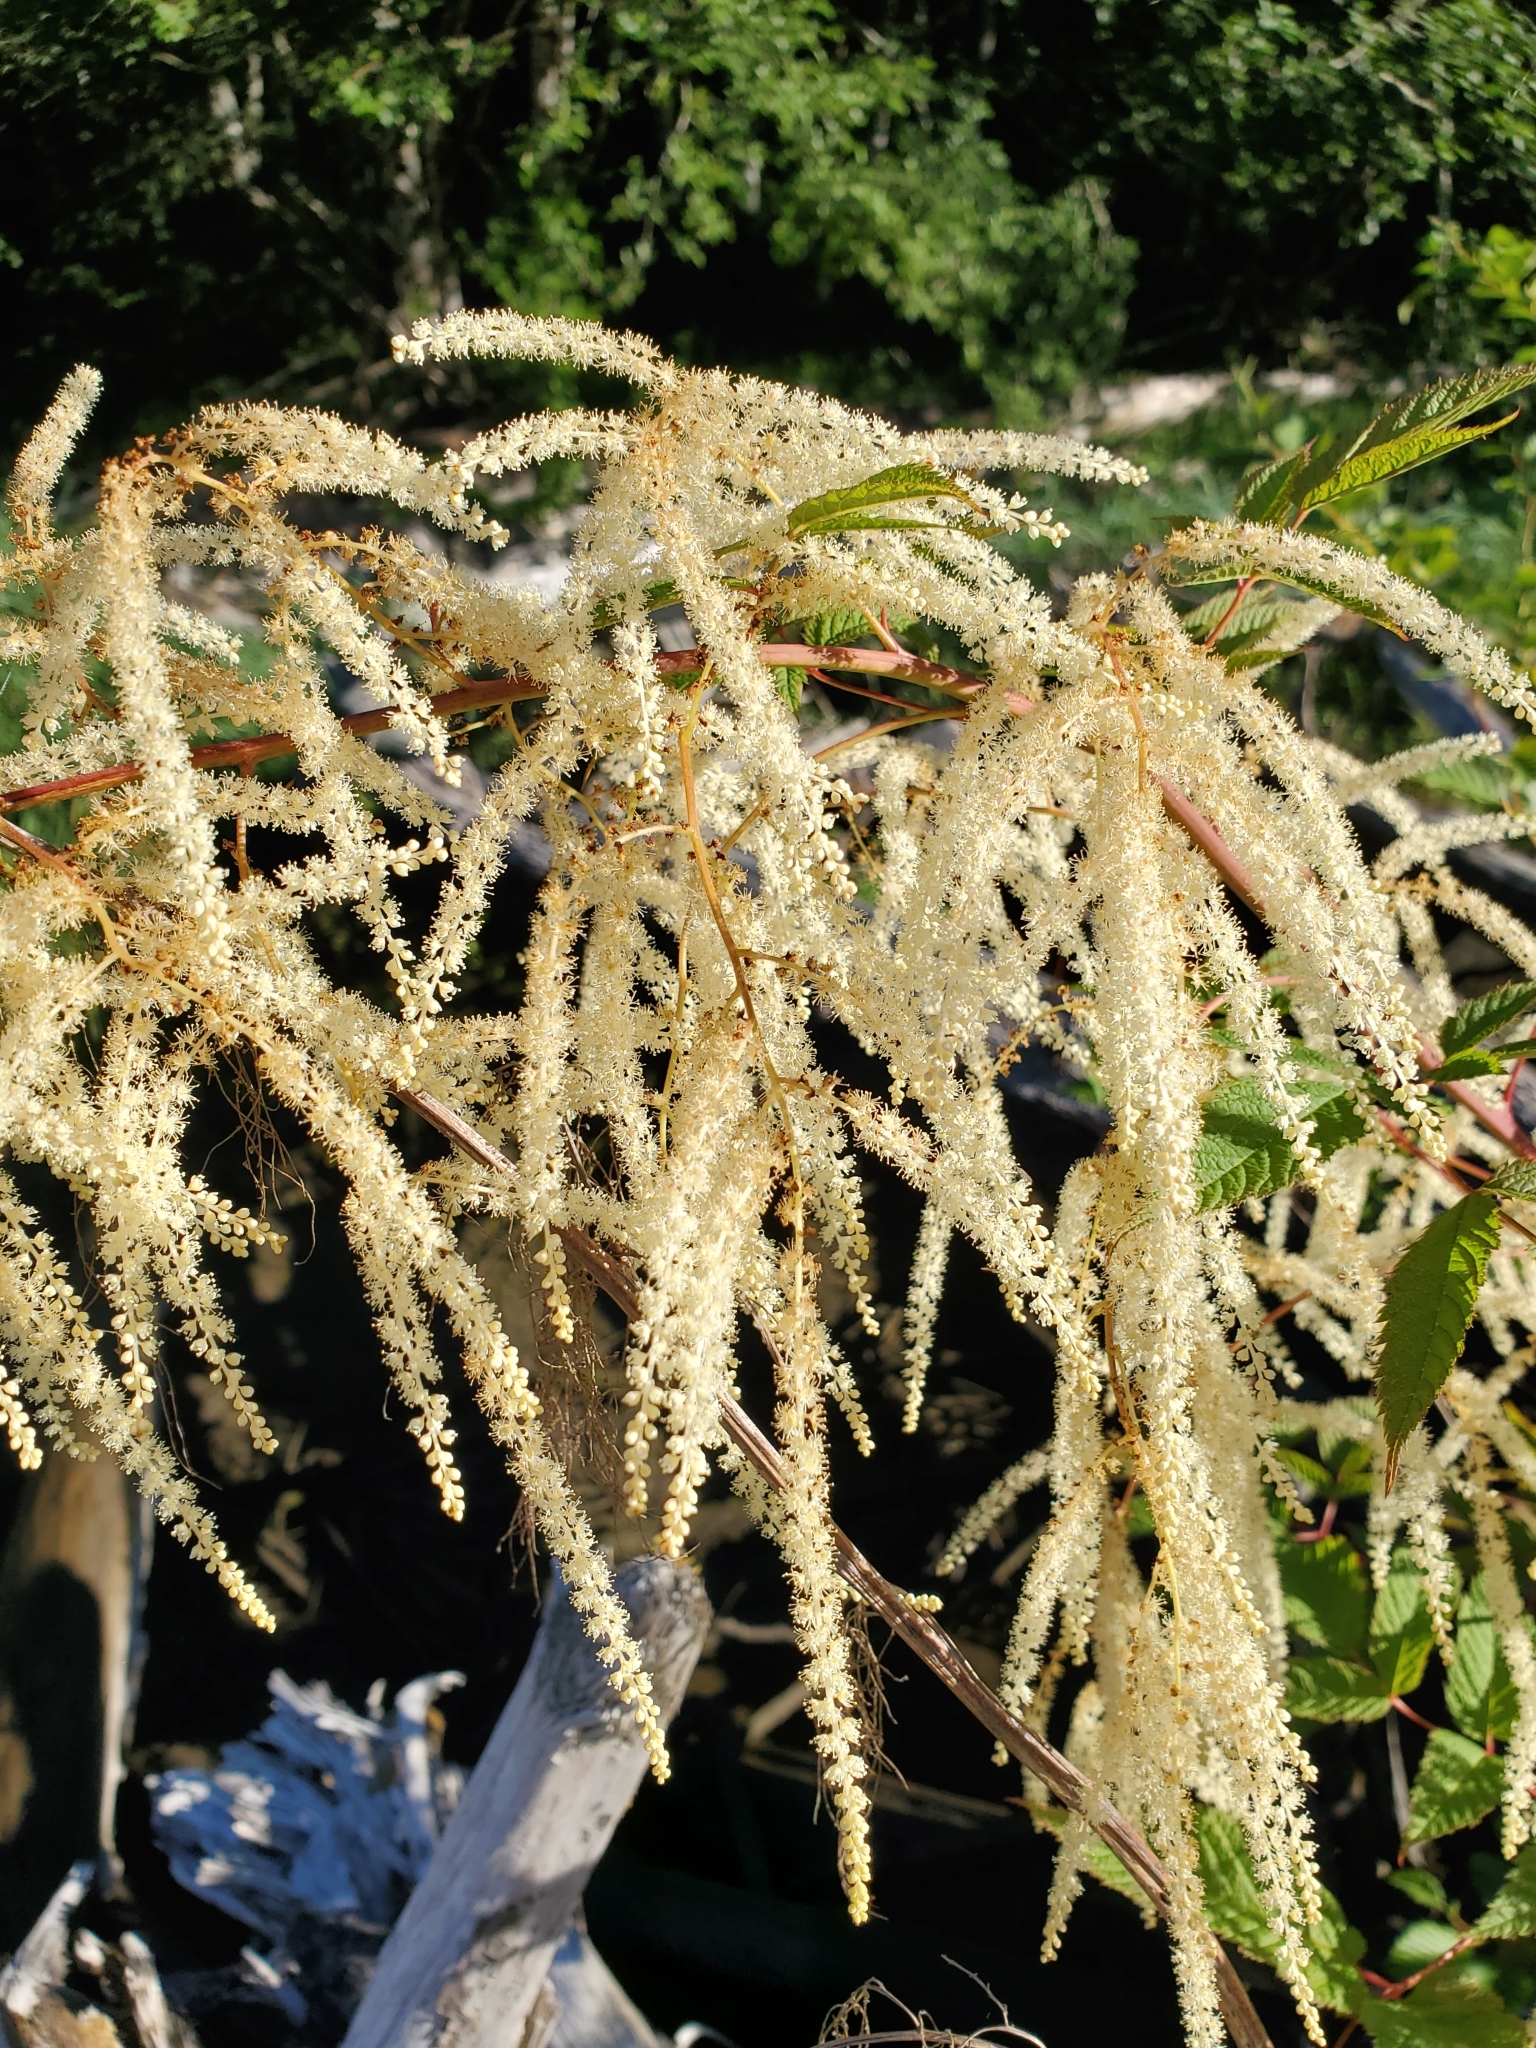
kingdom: Plantae
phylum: Tracheophyta
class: Magnoliopsida
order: Rosales
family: Rosaceae
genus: Aruncus
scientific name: Aruncus dioicus
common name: Buck's-beard
